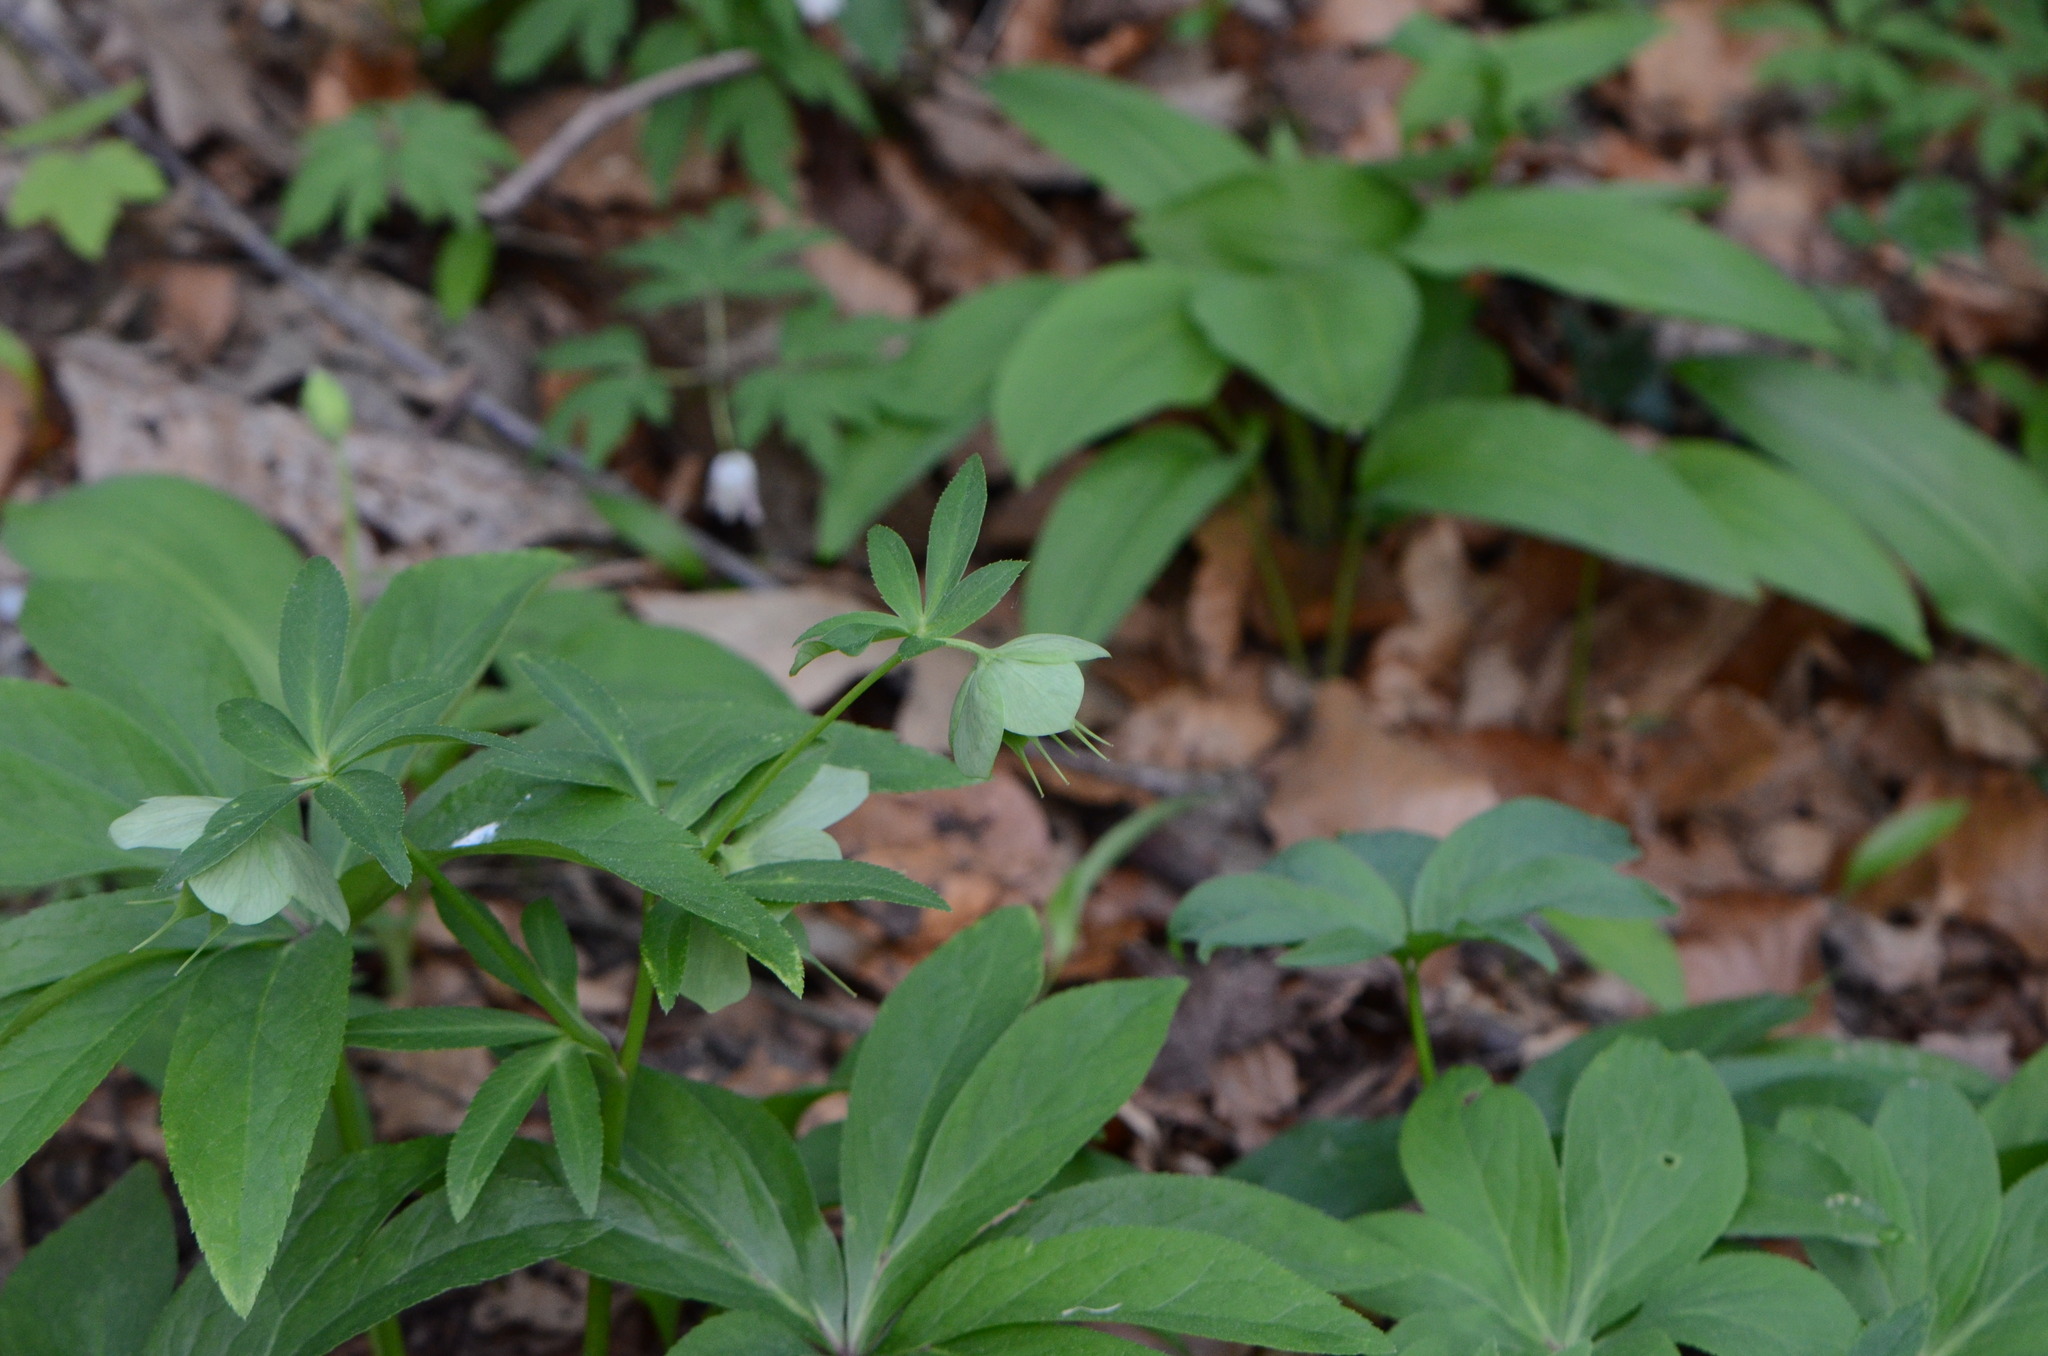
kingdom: Plantae
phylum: Tracheophyta
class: Magnoliopsida
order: Ranunculales
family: Ranunculaceae
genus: Helleborus
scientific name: Helleborus viridis
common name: Green hellebore
